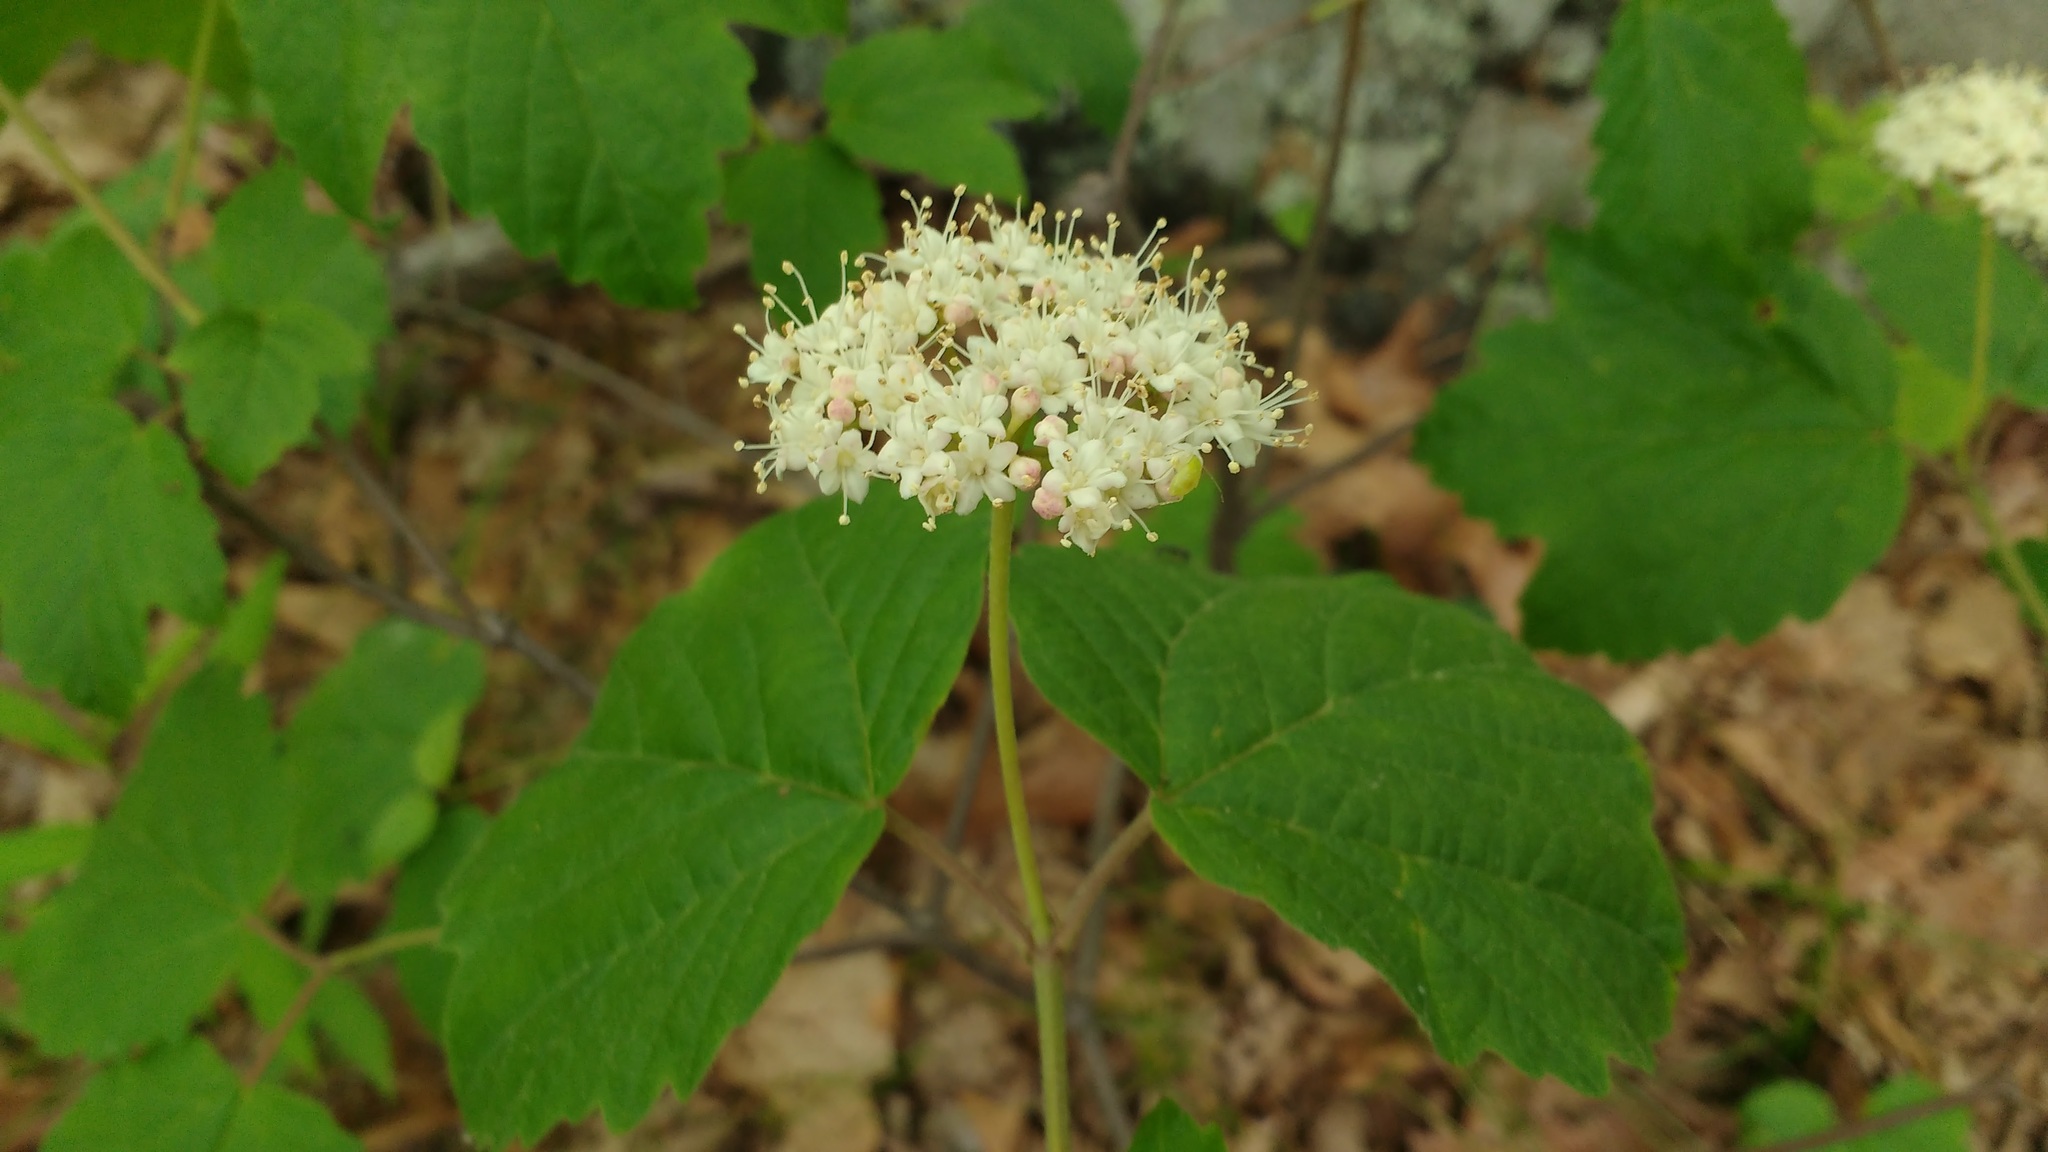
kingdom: Plantae
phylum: Tracheophyta
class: Magnoliopsida
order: Dipsacales
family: Viburnaceae
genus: Viburnum
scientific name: Viburnum acerifolium
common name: Dockmackie
